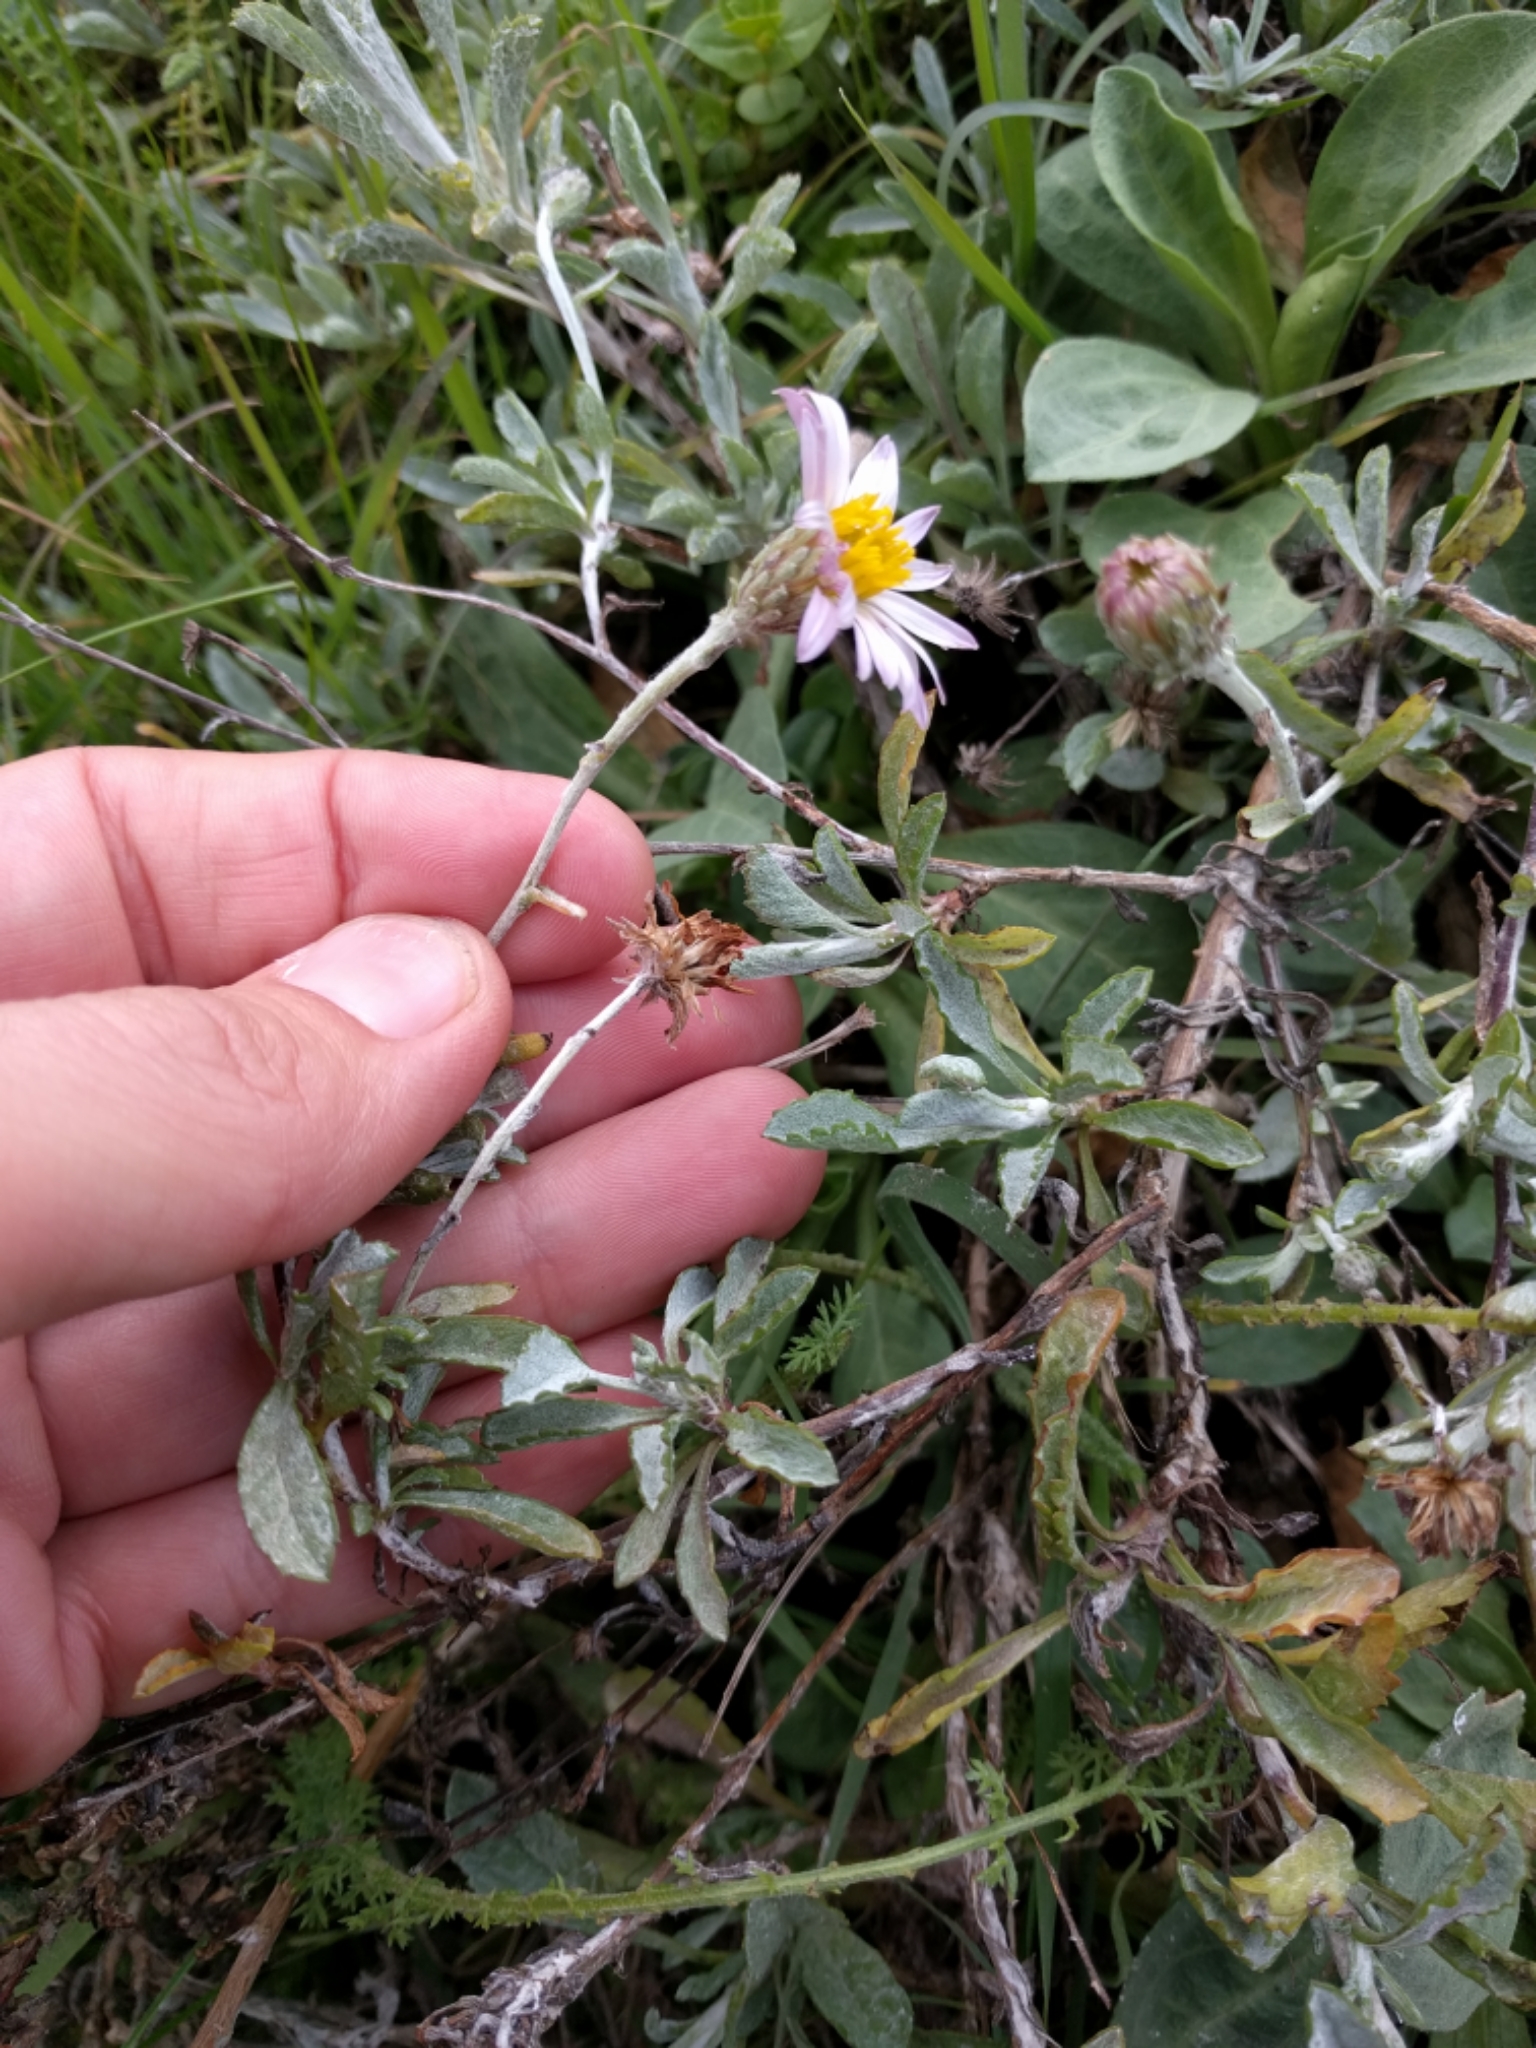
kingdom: Plantae
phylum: Tracheophyta
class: Magnoliopsida
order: Asterales
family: Asteraceae
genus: Corethrogyne
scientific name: Corethrogyne filaginifolia
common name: Sand-aster
